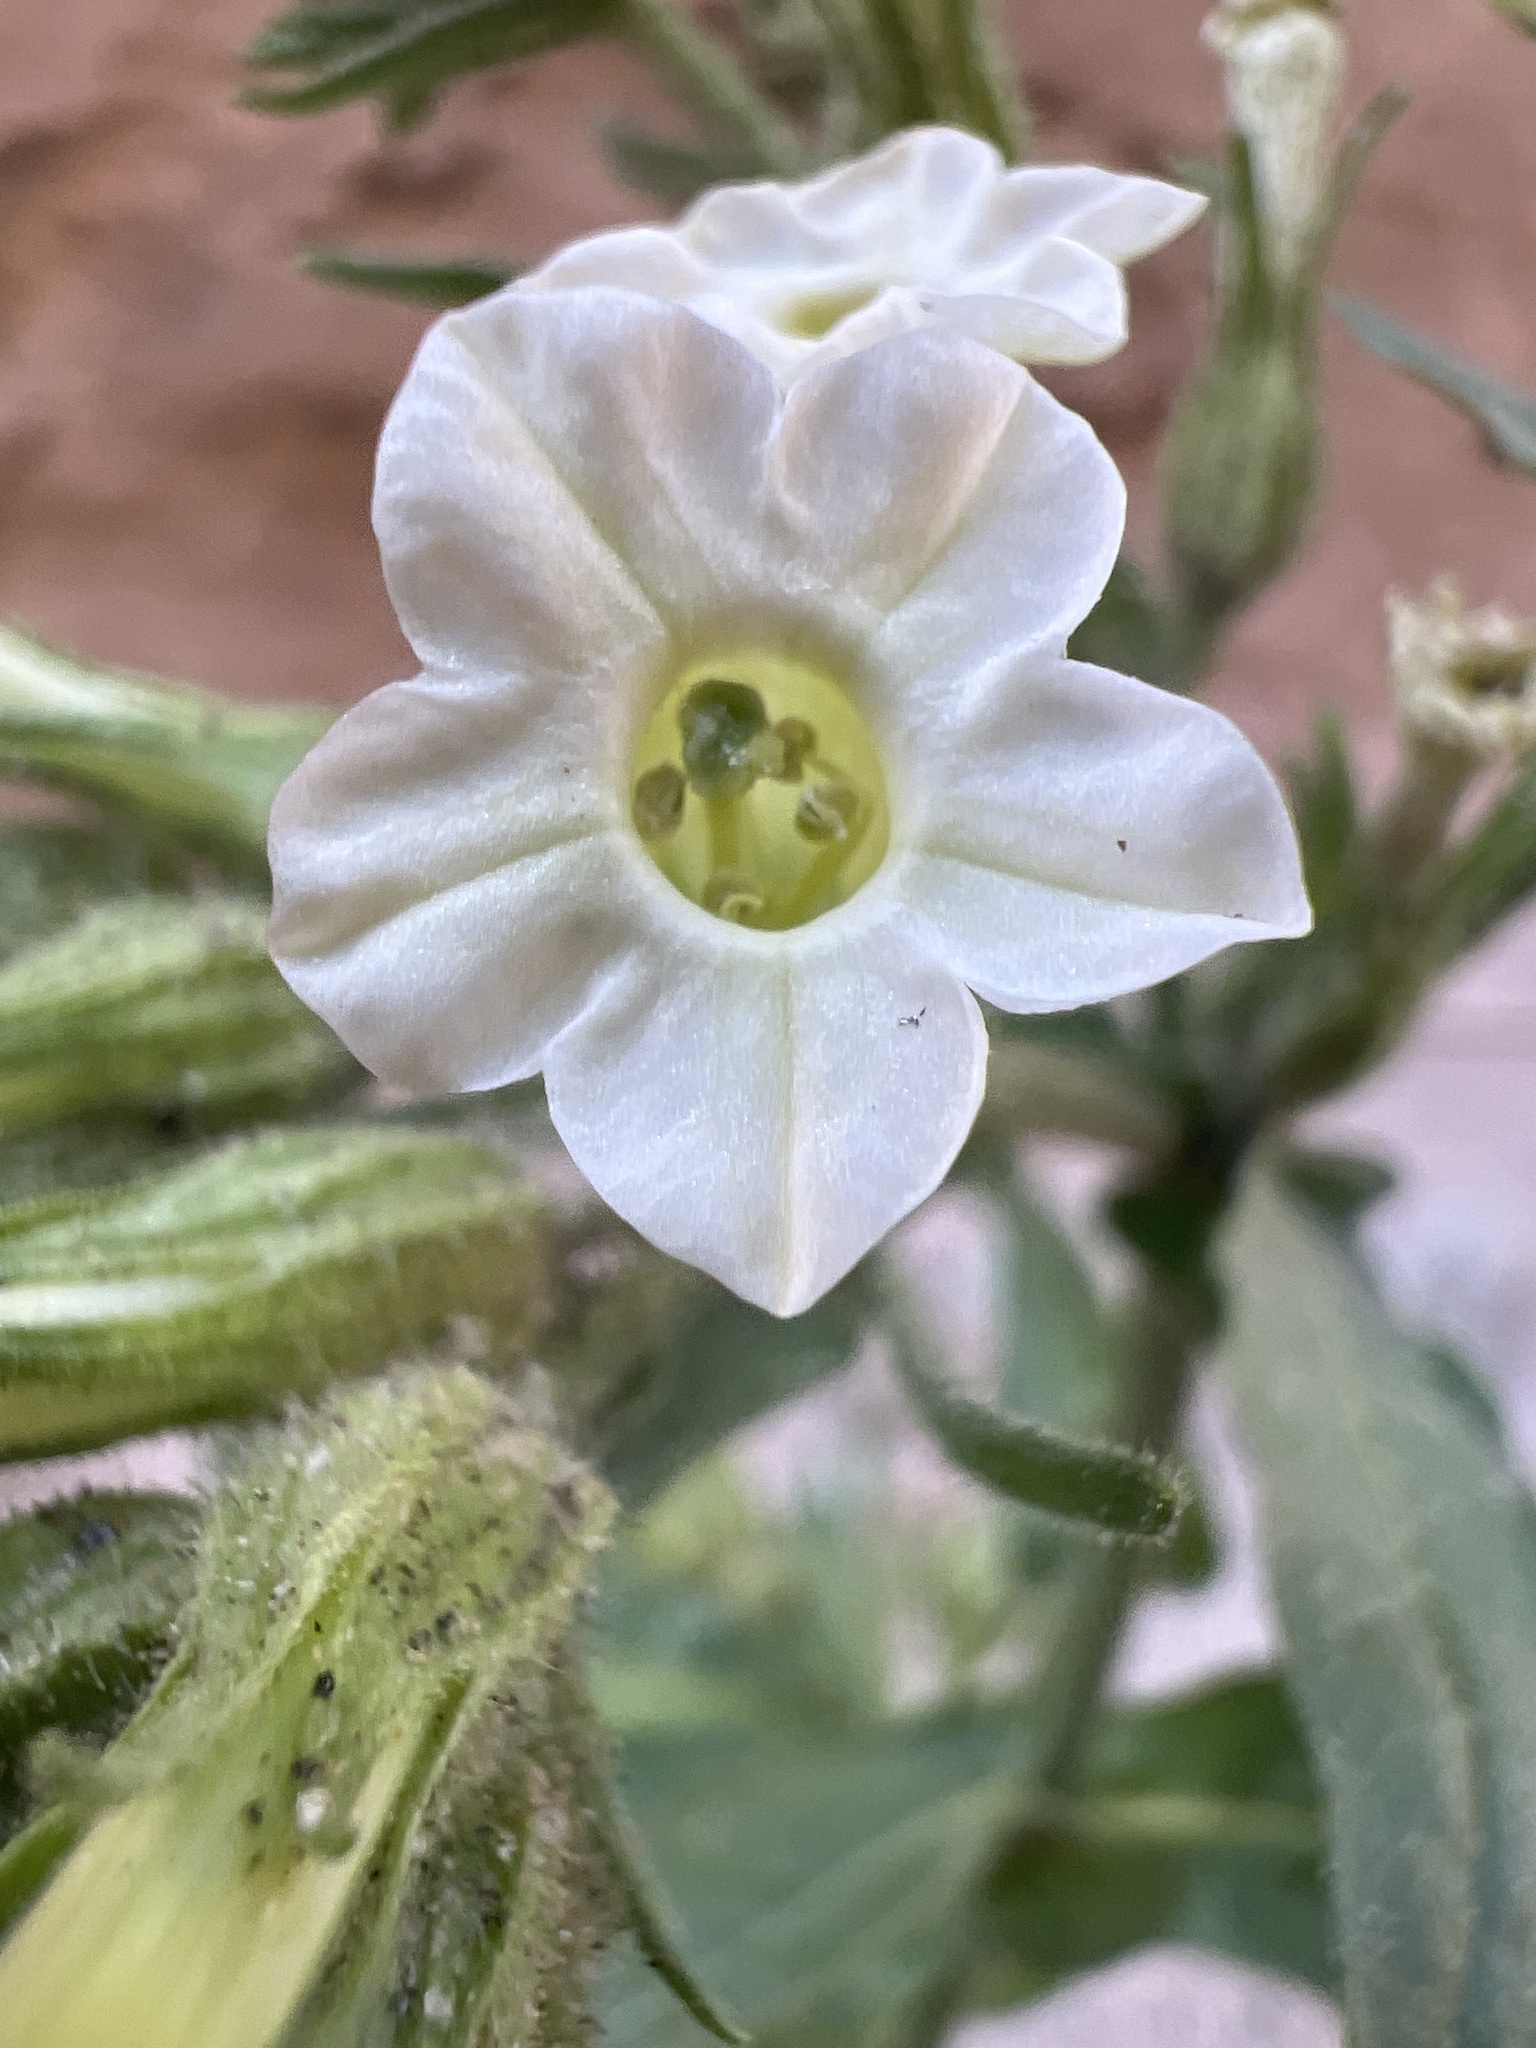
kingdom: Plantae
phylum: Tracheophyta
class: Magnoliopsida
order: Solanales
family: Solanaceae
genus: Nicotiana
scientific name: Nicotiana obtusifolia
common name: Desert tobacco
